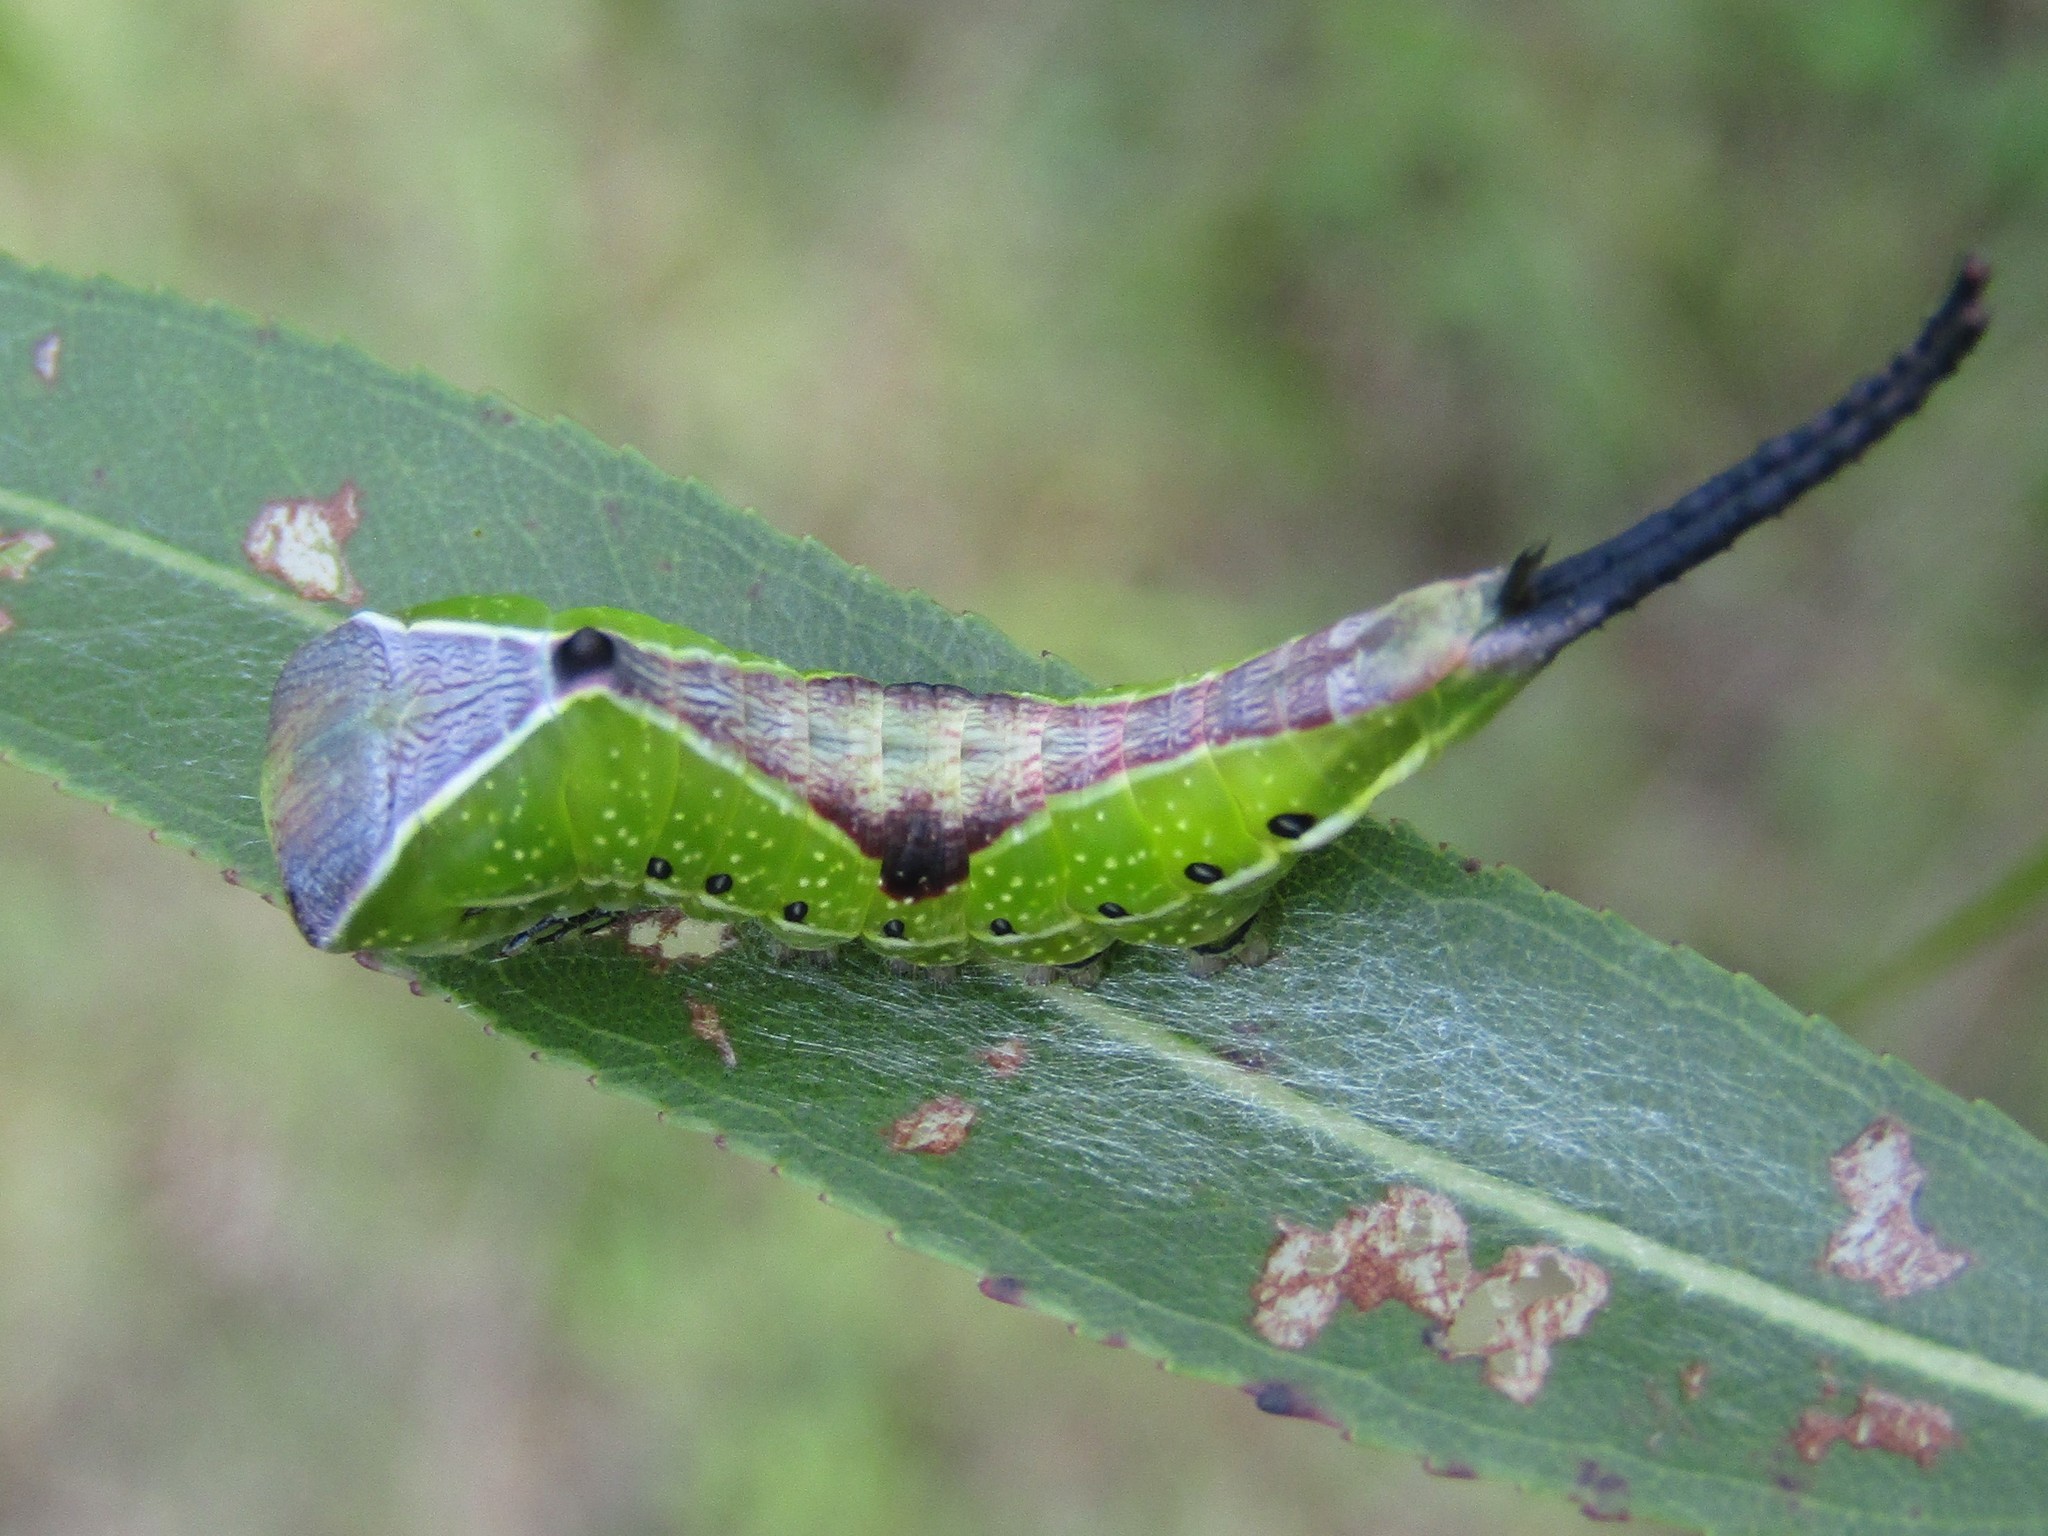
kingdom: Animalia
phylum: Arthropoda
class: Insecta
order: Lepidoptera
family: Notodontidae
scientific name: Notodontidae
